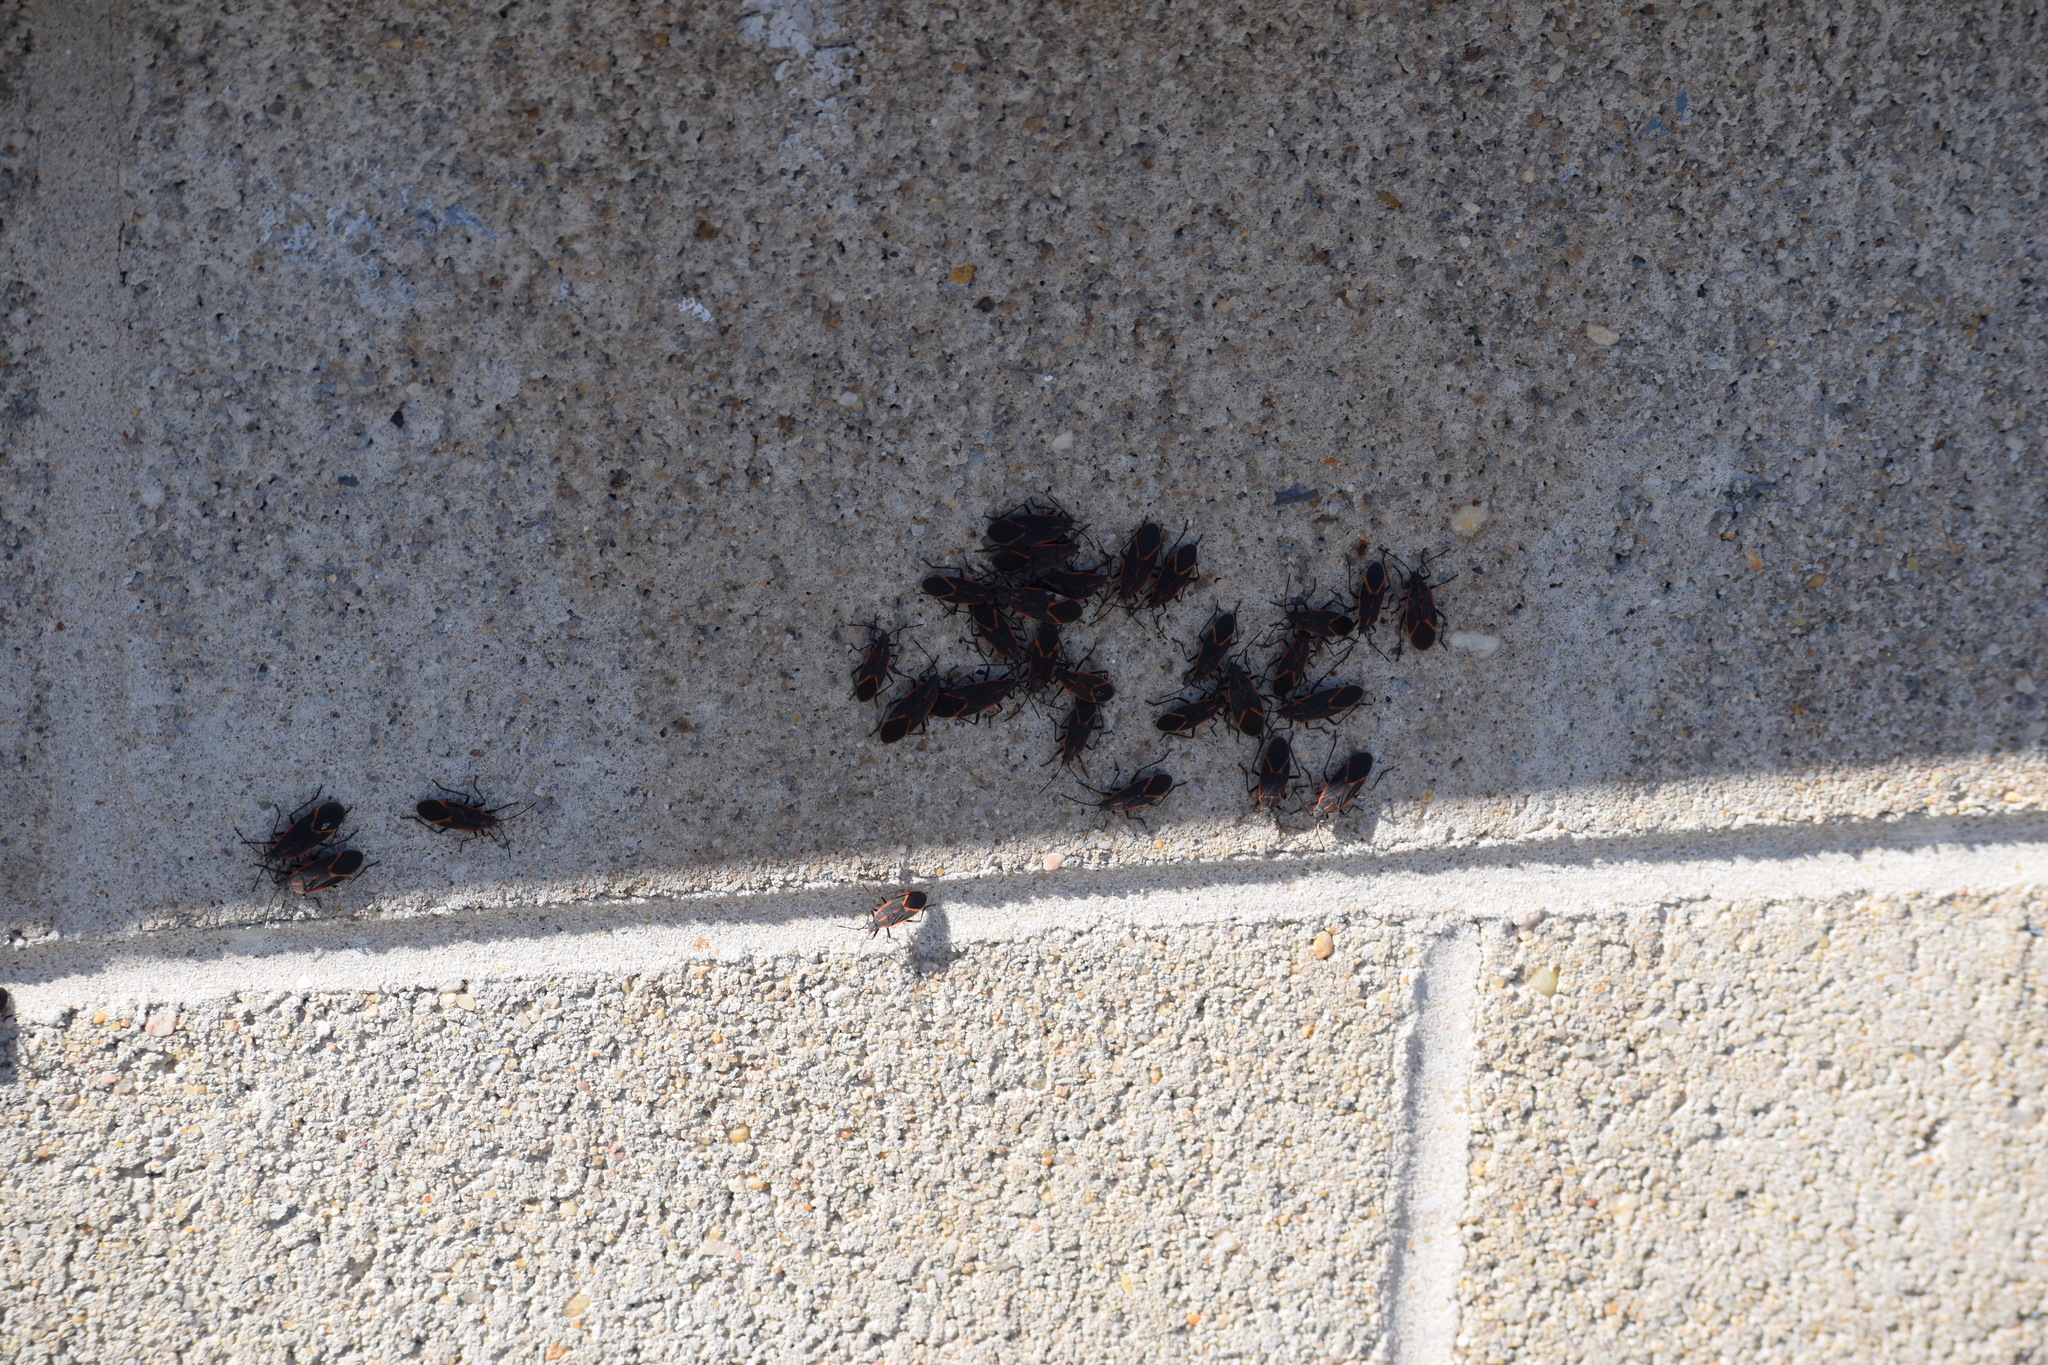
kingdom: Animalia
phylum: Arthropoda
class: Insecta
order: Hemiptera
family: Rhopalidae
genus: Boisea
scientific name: Boisea trivittata
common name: Boxelder bug
